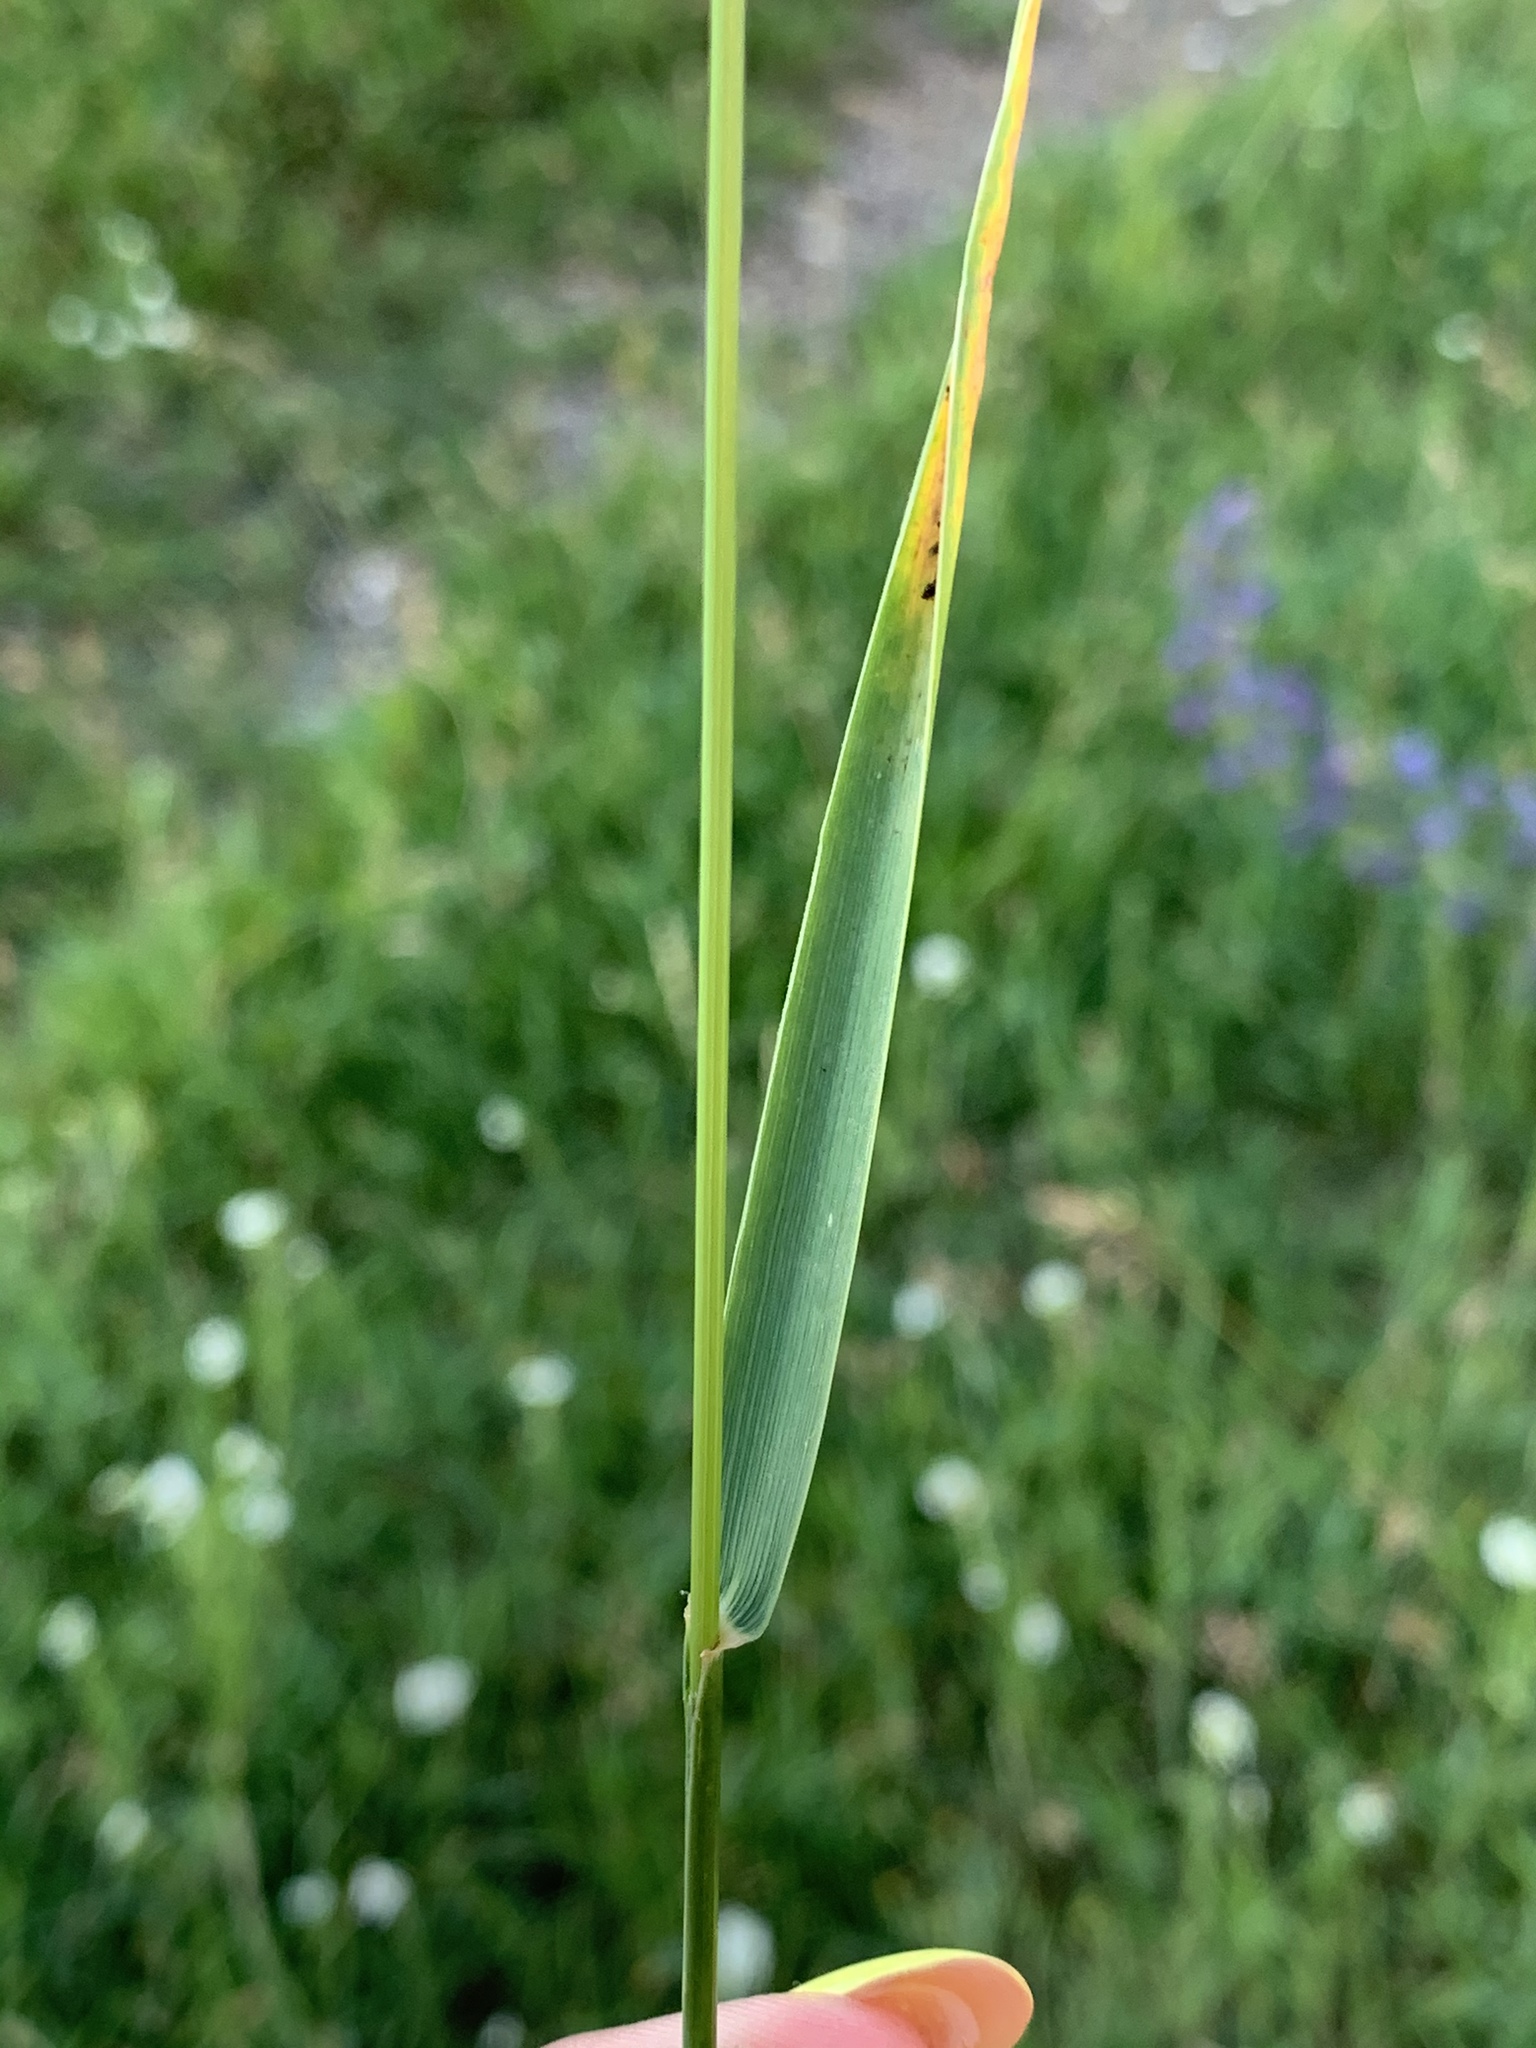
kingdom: Plantae
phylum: Tracheophyta
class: Liliopsida
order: Poales
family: Poaceae
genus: Elymus
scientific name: Elymus repens
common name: Quackgrass
